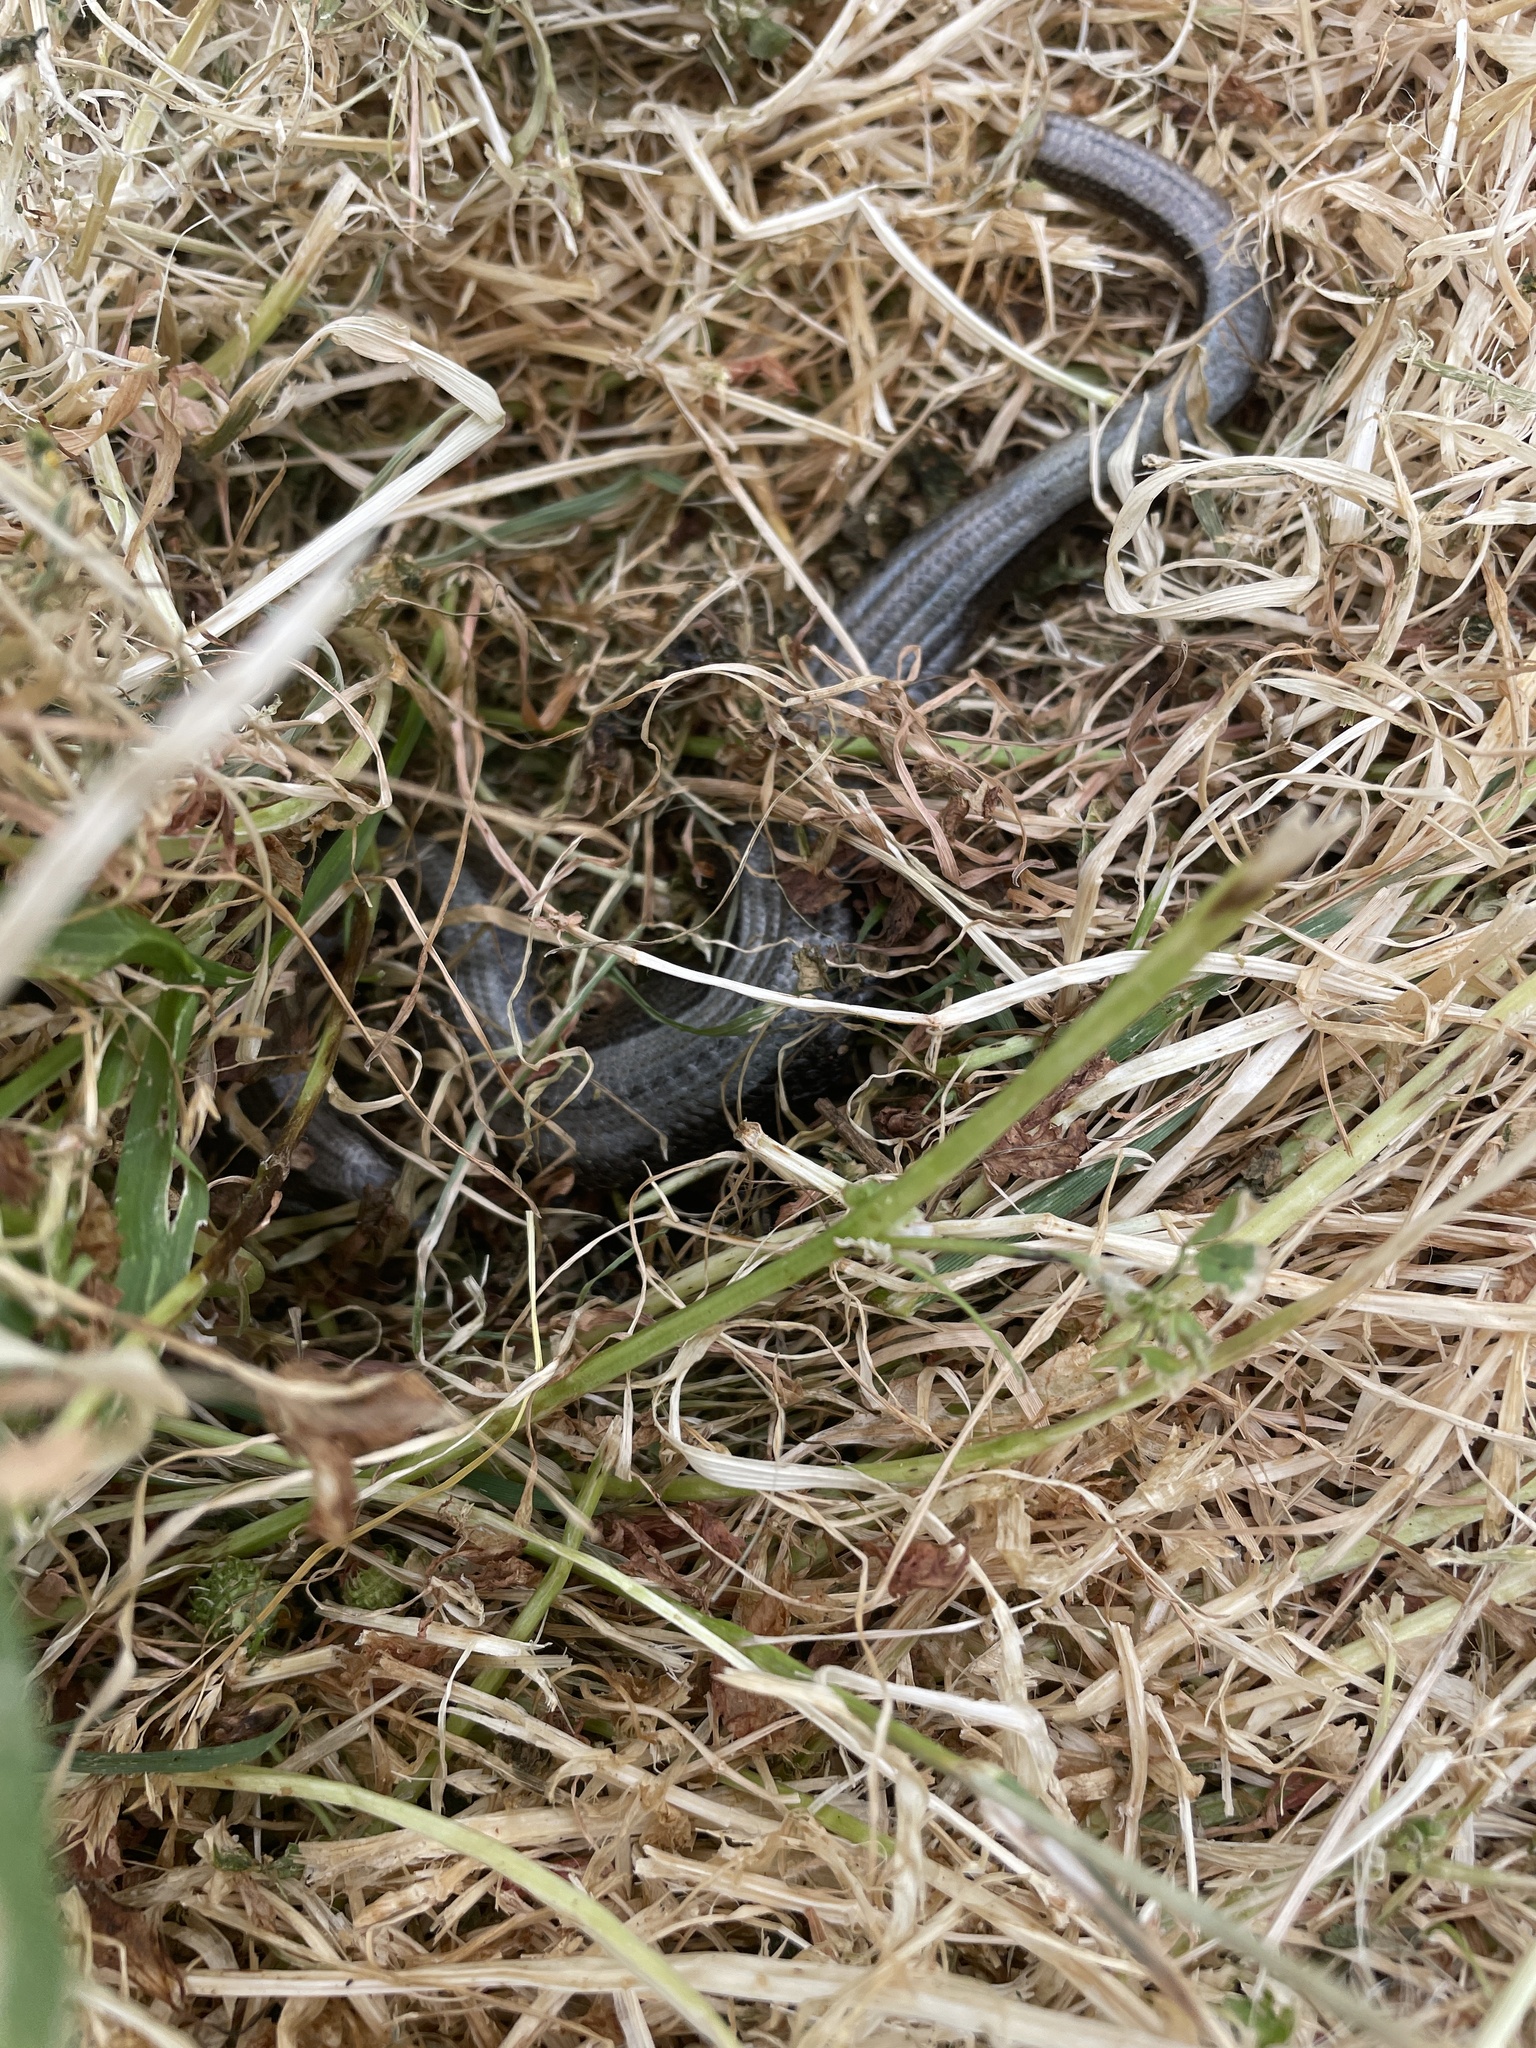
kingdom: Animalia
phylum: Chordata
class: Squamata
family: Anguidae
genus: Anguis
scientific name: Anguis fragilis
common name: Slow worm
